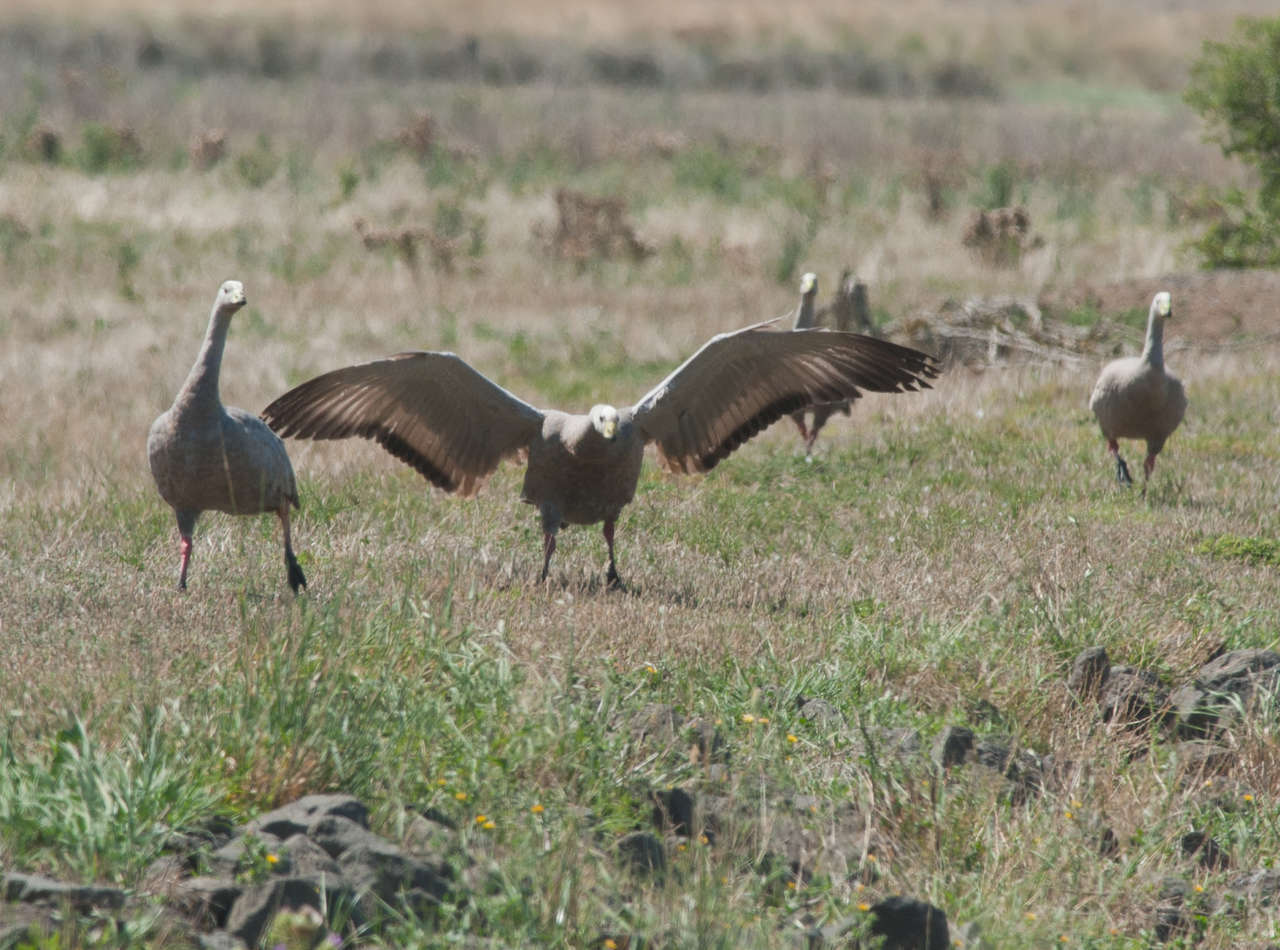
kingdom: Animalia
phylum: Chordata
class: Aves
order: Anseriformes
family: Anatidae
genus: Cereopsis
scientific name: Cereopsis novaehollandiae
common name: Cape barren goose
